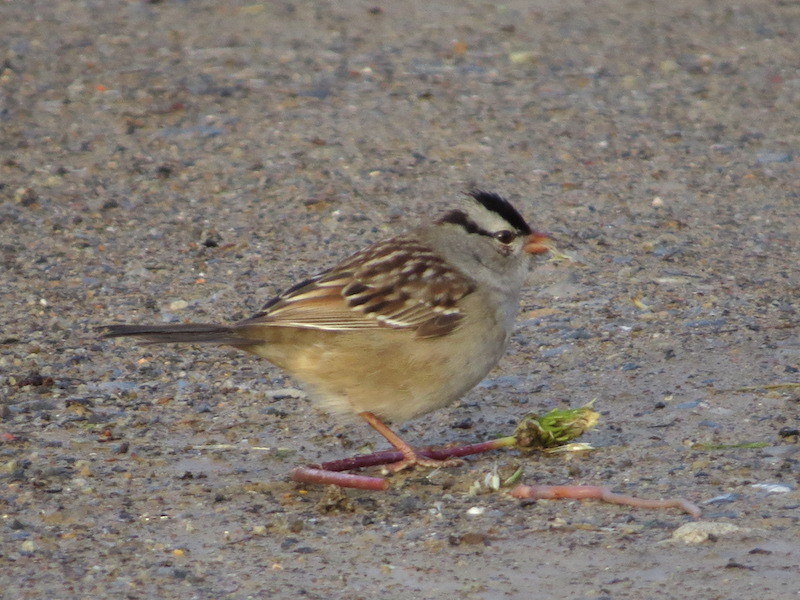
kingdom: Animalia
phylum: Chordata
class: Aves
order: Passeriformes
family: Passerellidae
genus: Zonotrichia
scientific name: Zonotrichia leucophrys
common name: White-crowned sparrow
